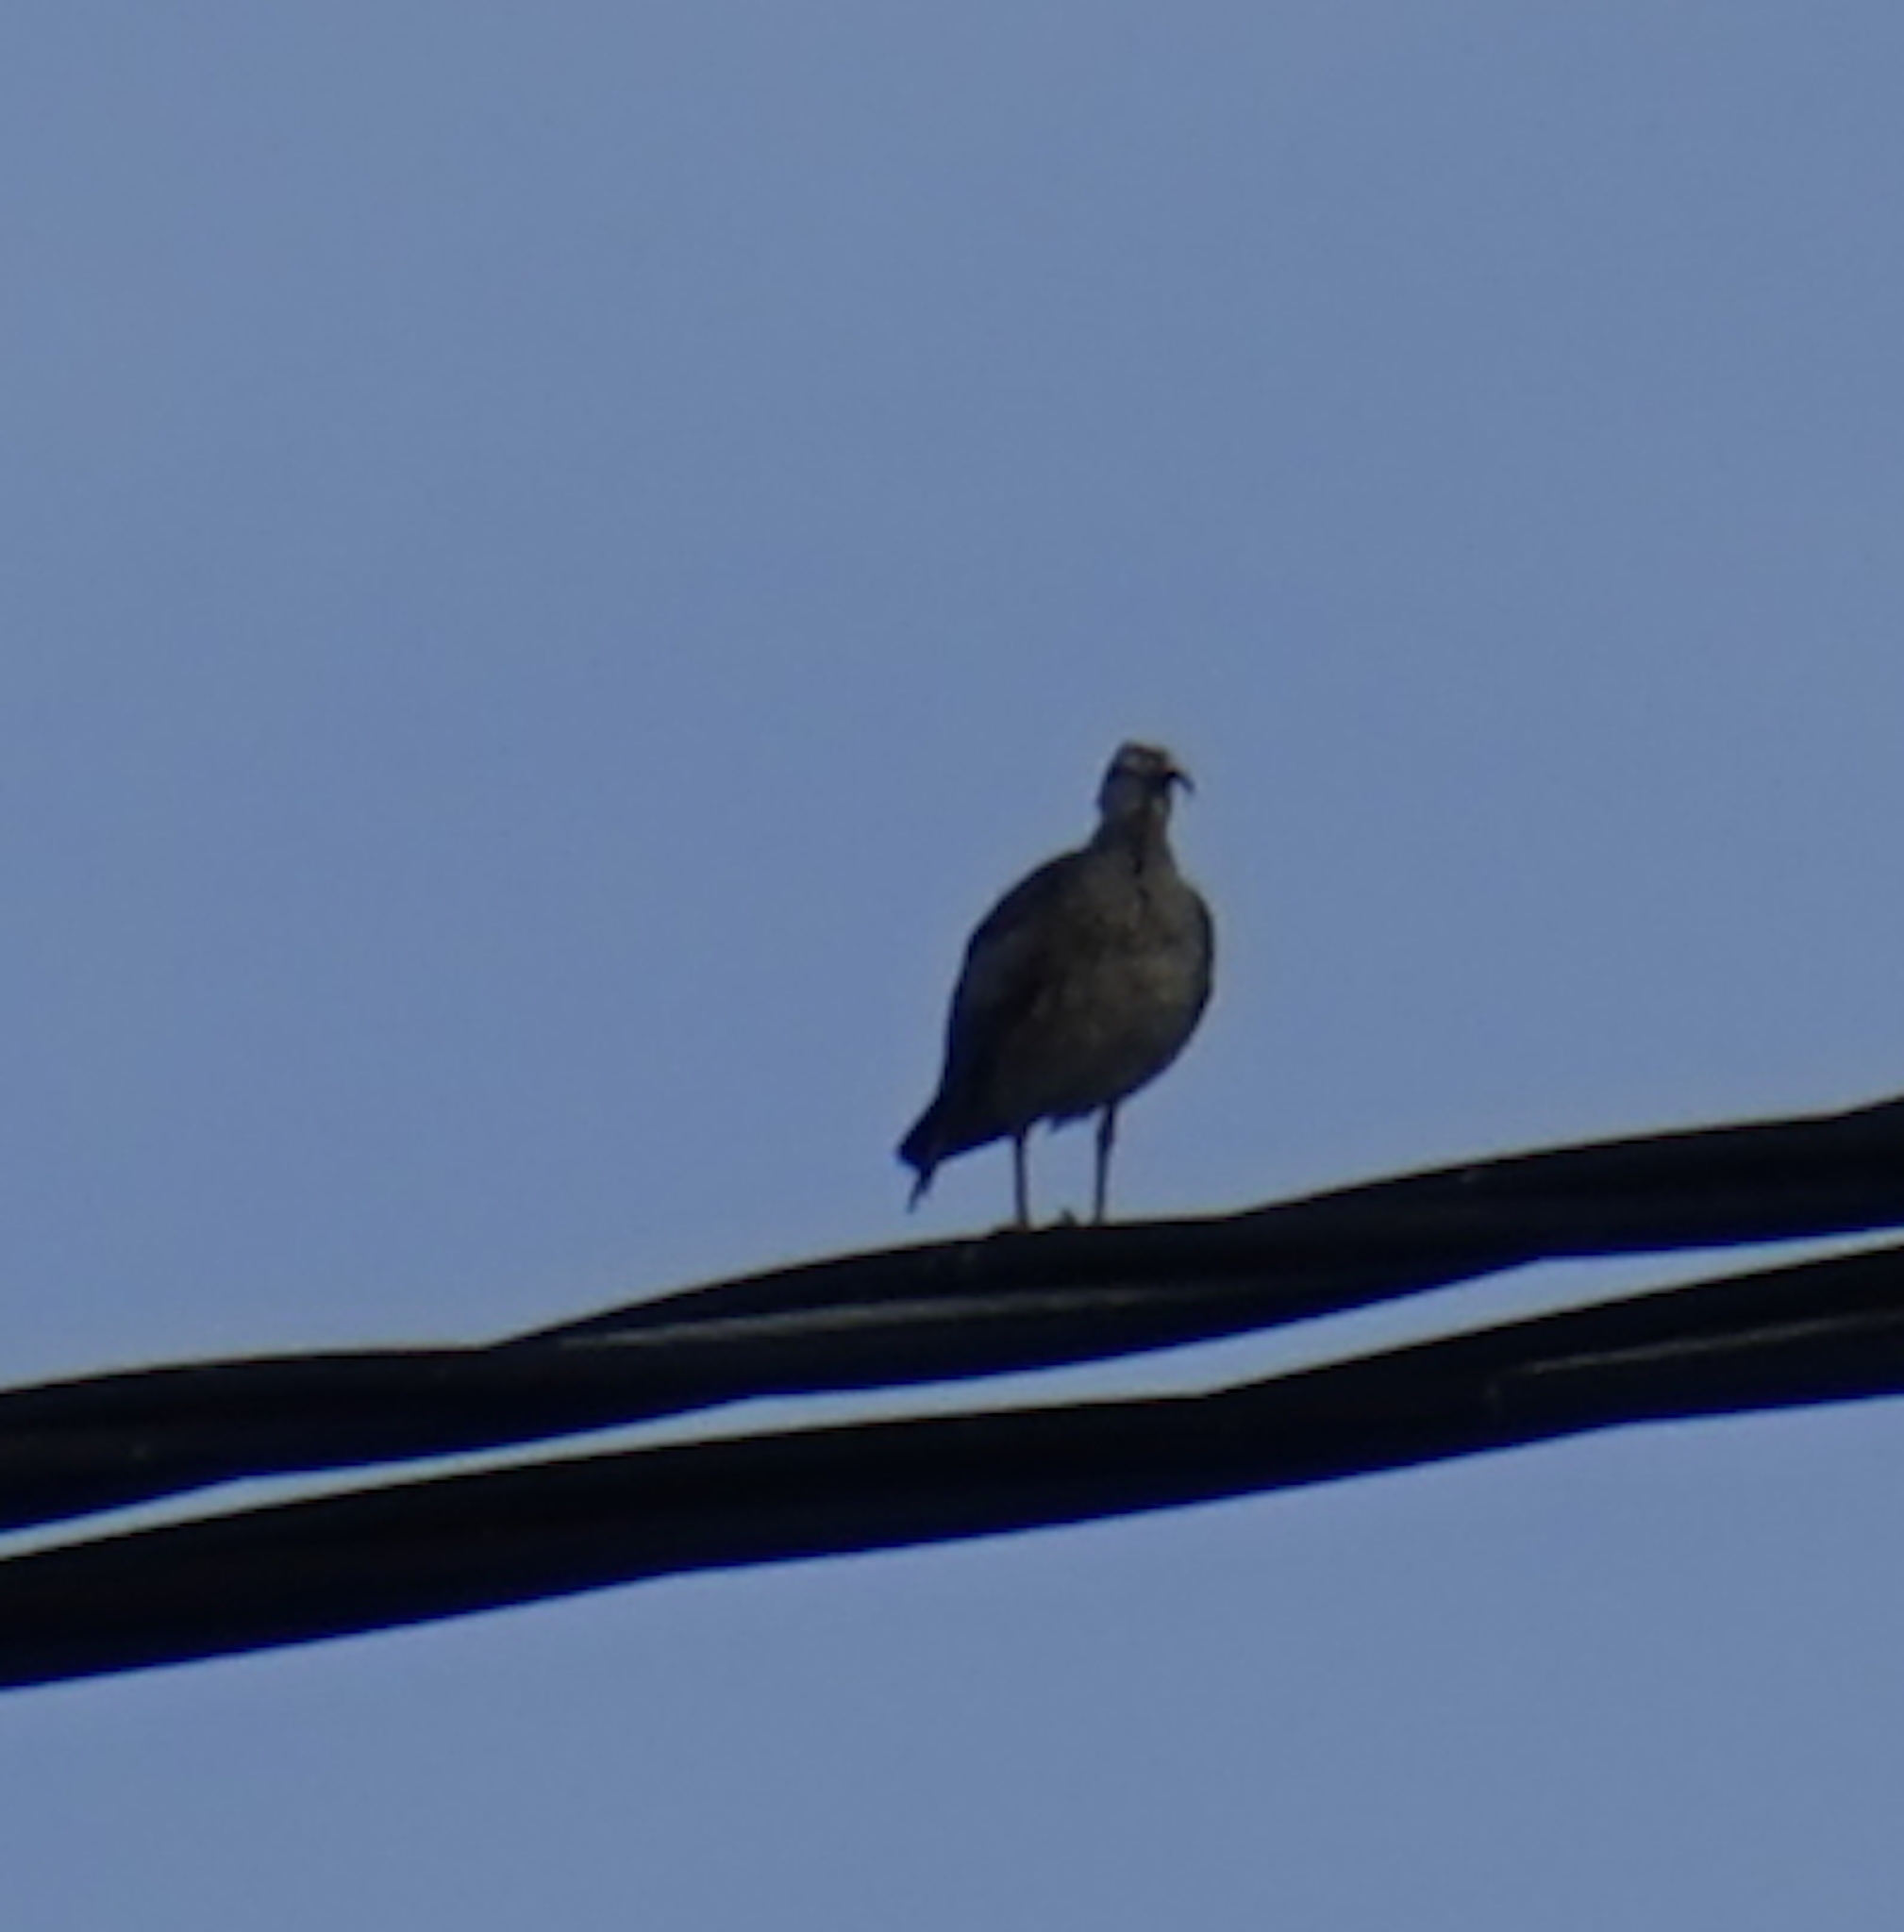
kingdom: Animalia
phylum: Chordata
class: Aves
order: Charadriiformes
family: Scolopacidae
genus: Numenius
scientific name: Numenius phaeopus
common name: Whimbrel
